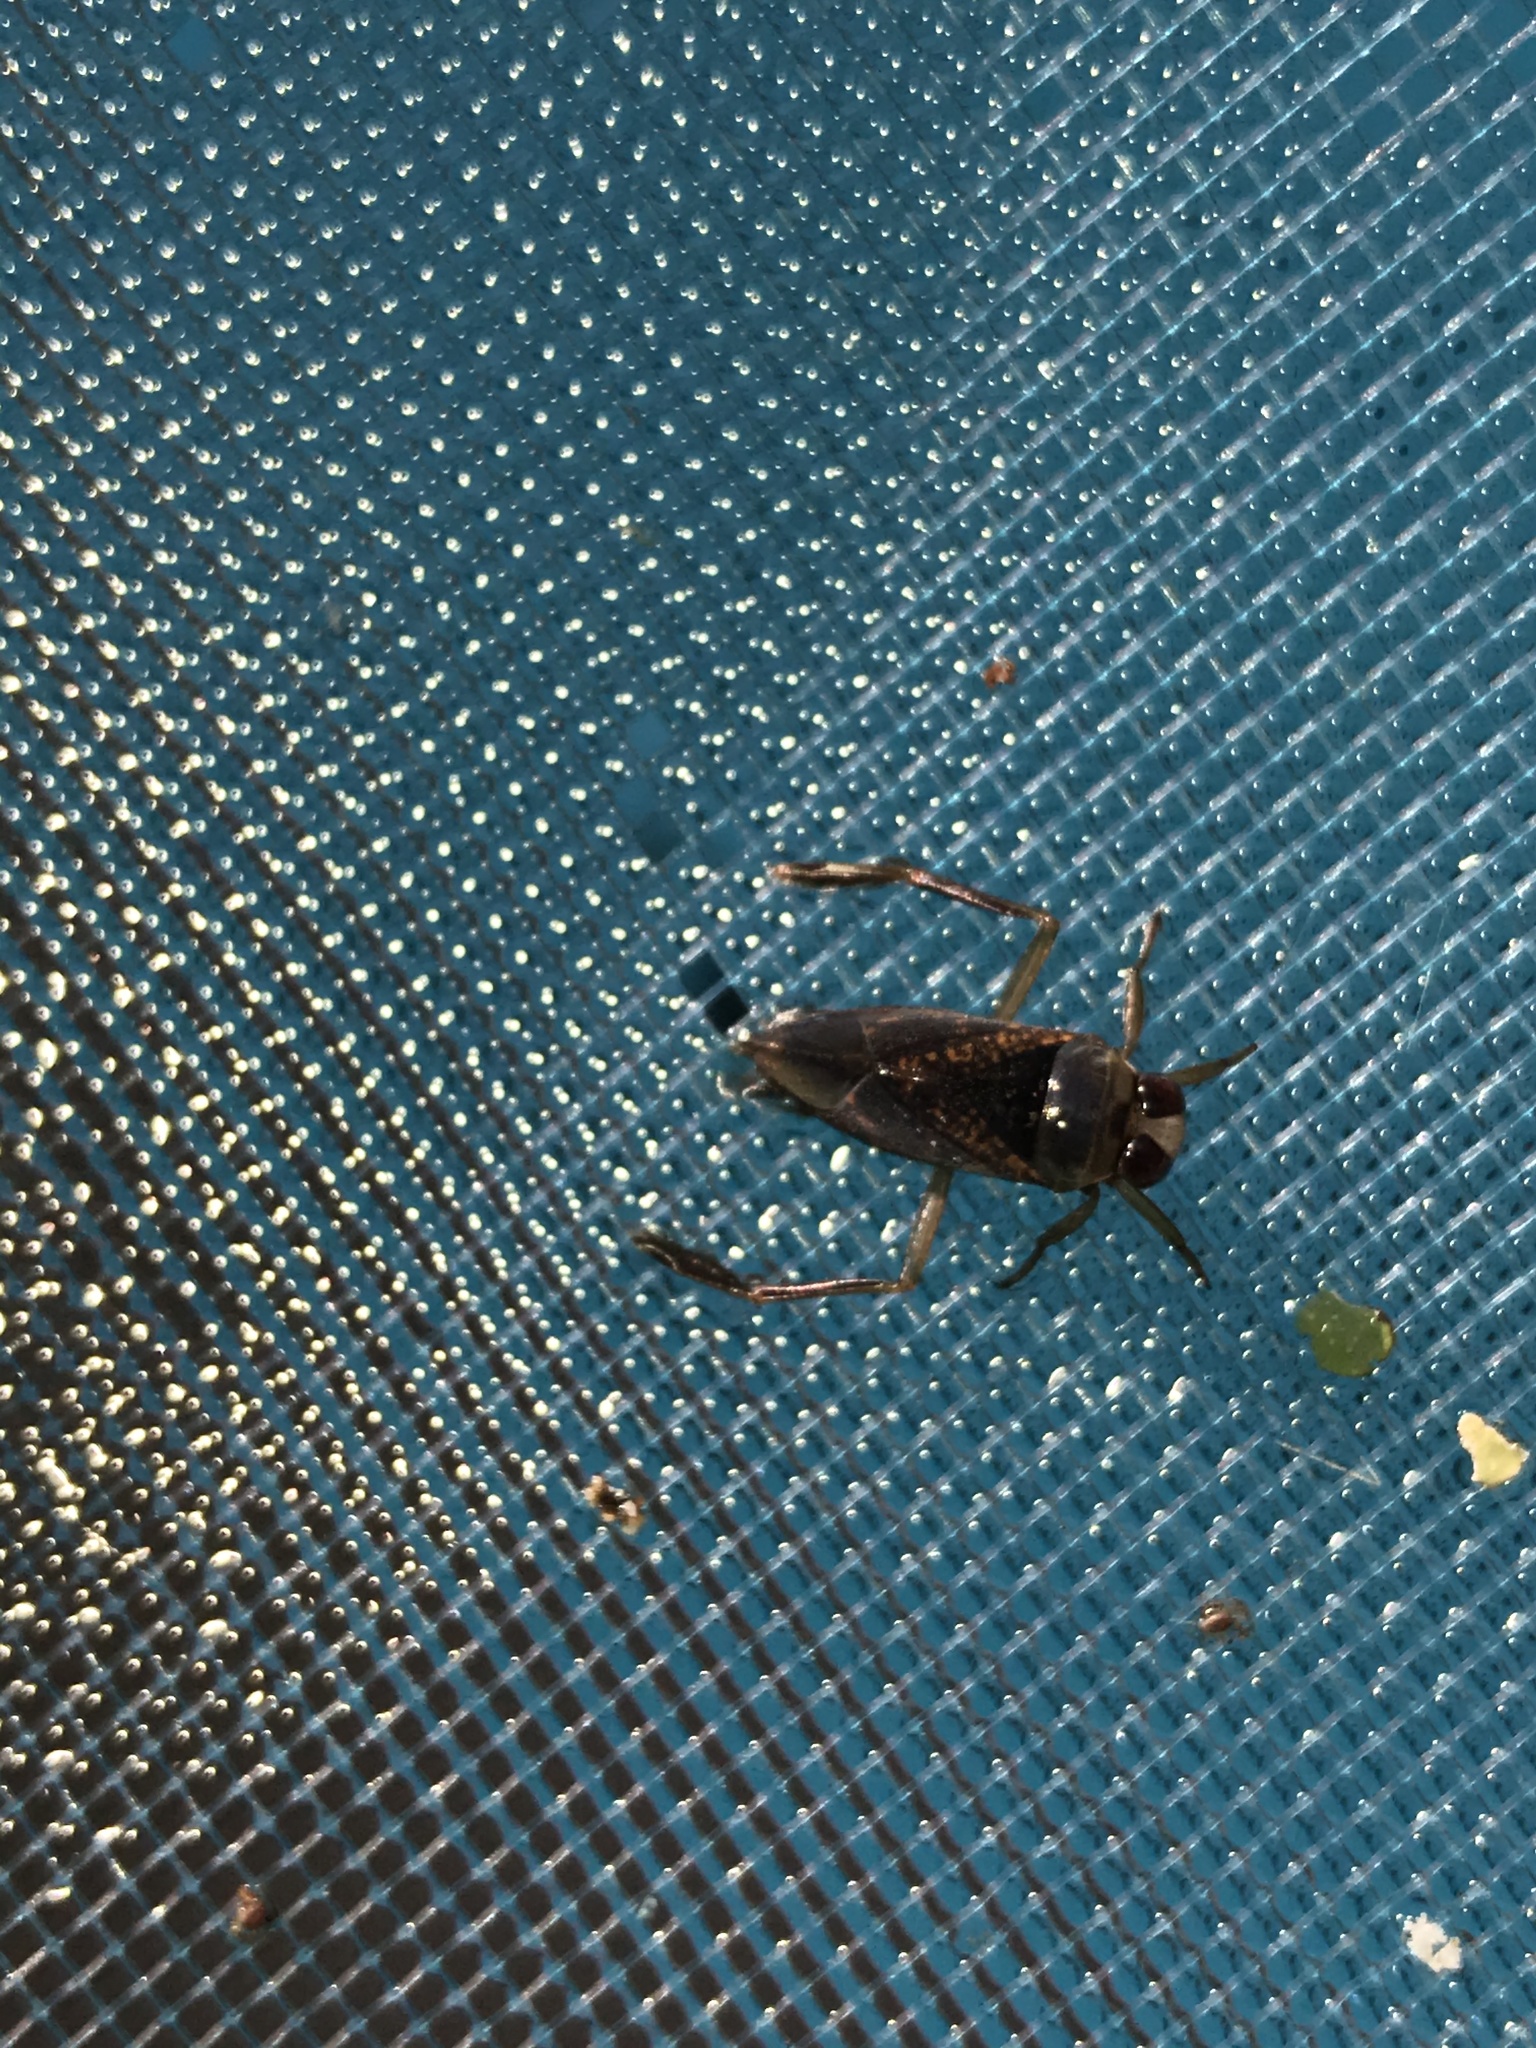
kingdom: Animalia
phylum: Arthropoda
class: Insecta
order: Hemiptera
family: Notonectidae
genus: Notonecta
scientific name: Notonecta irrorata
